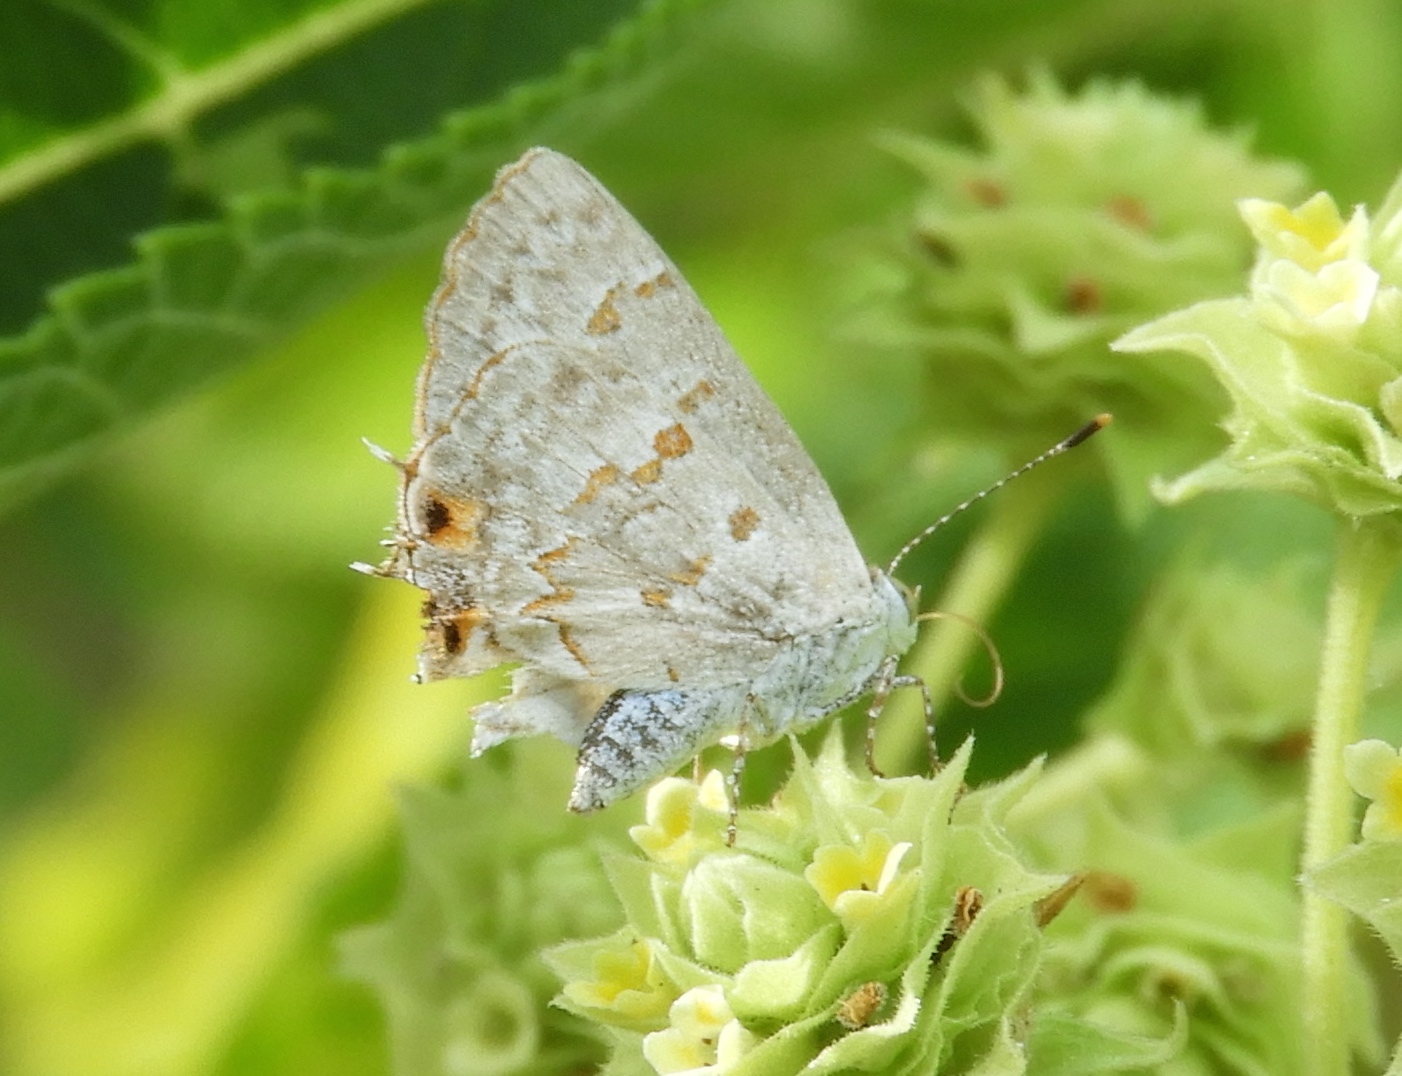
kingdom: Animalia
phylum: Arthropoda
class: Insecta
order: Lepidoptera
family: Lycaenidae
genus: Ministrymon
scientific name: Ministrymon clytie
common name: Clytie ministreak
